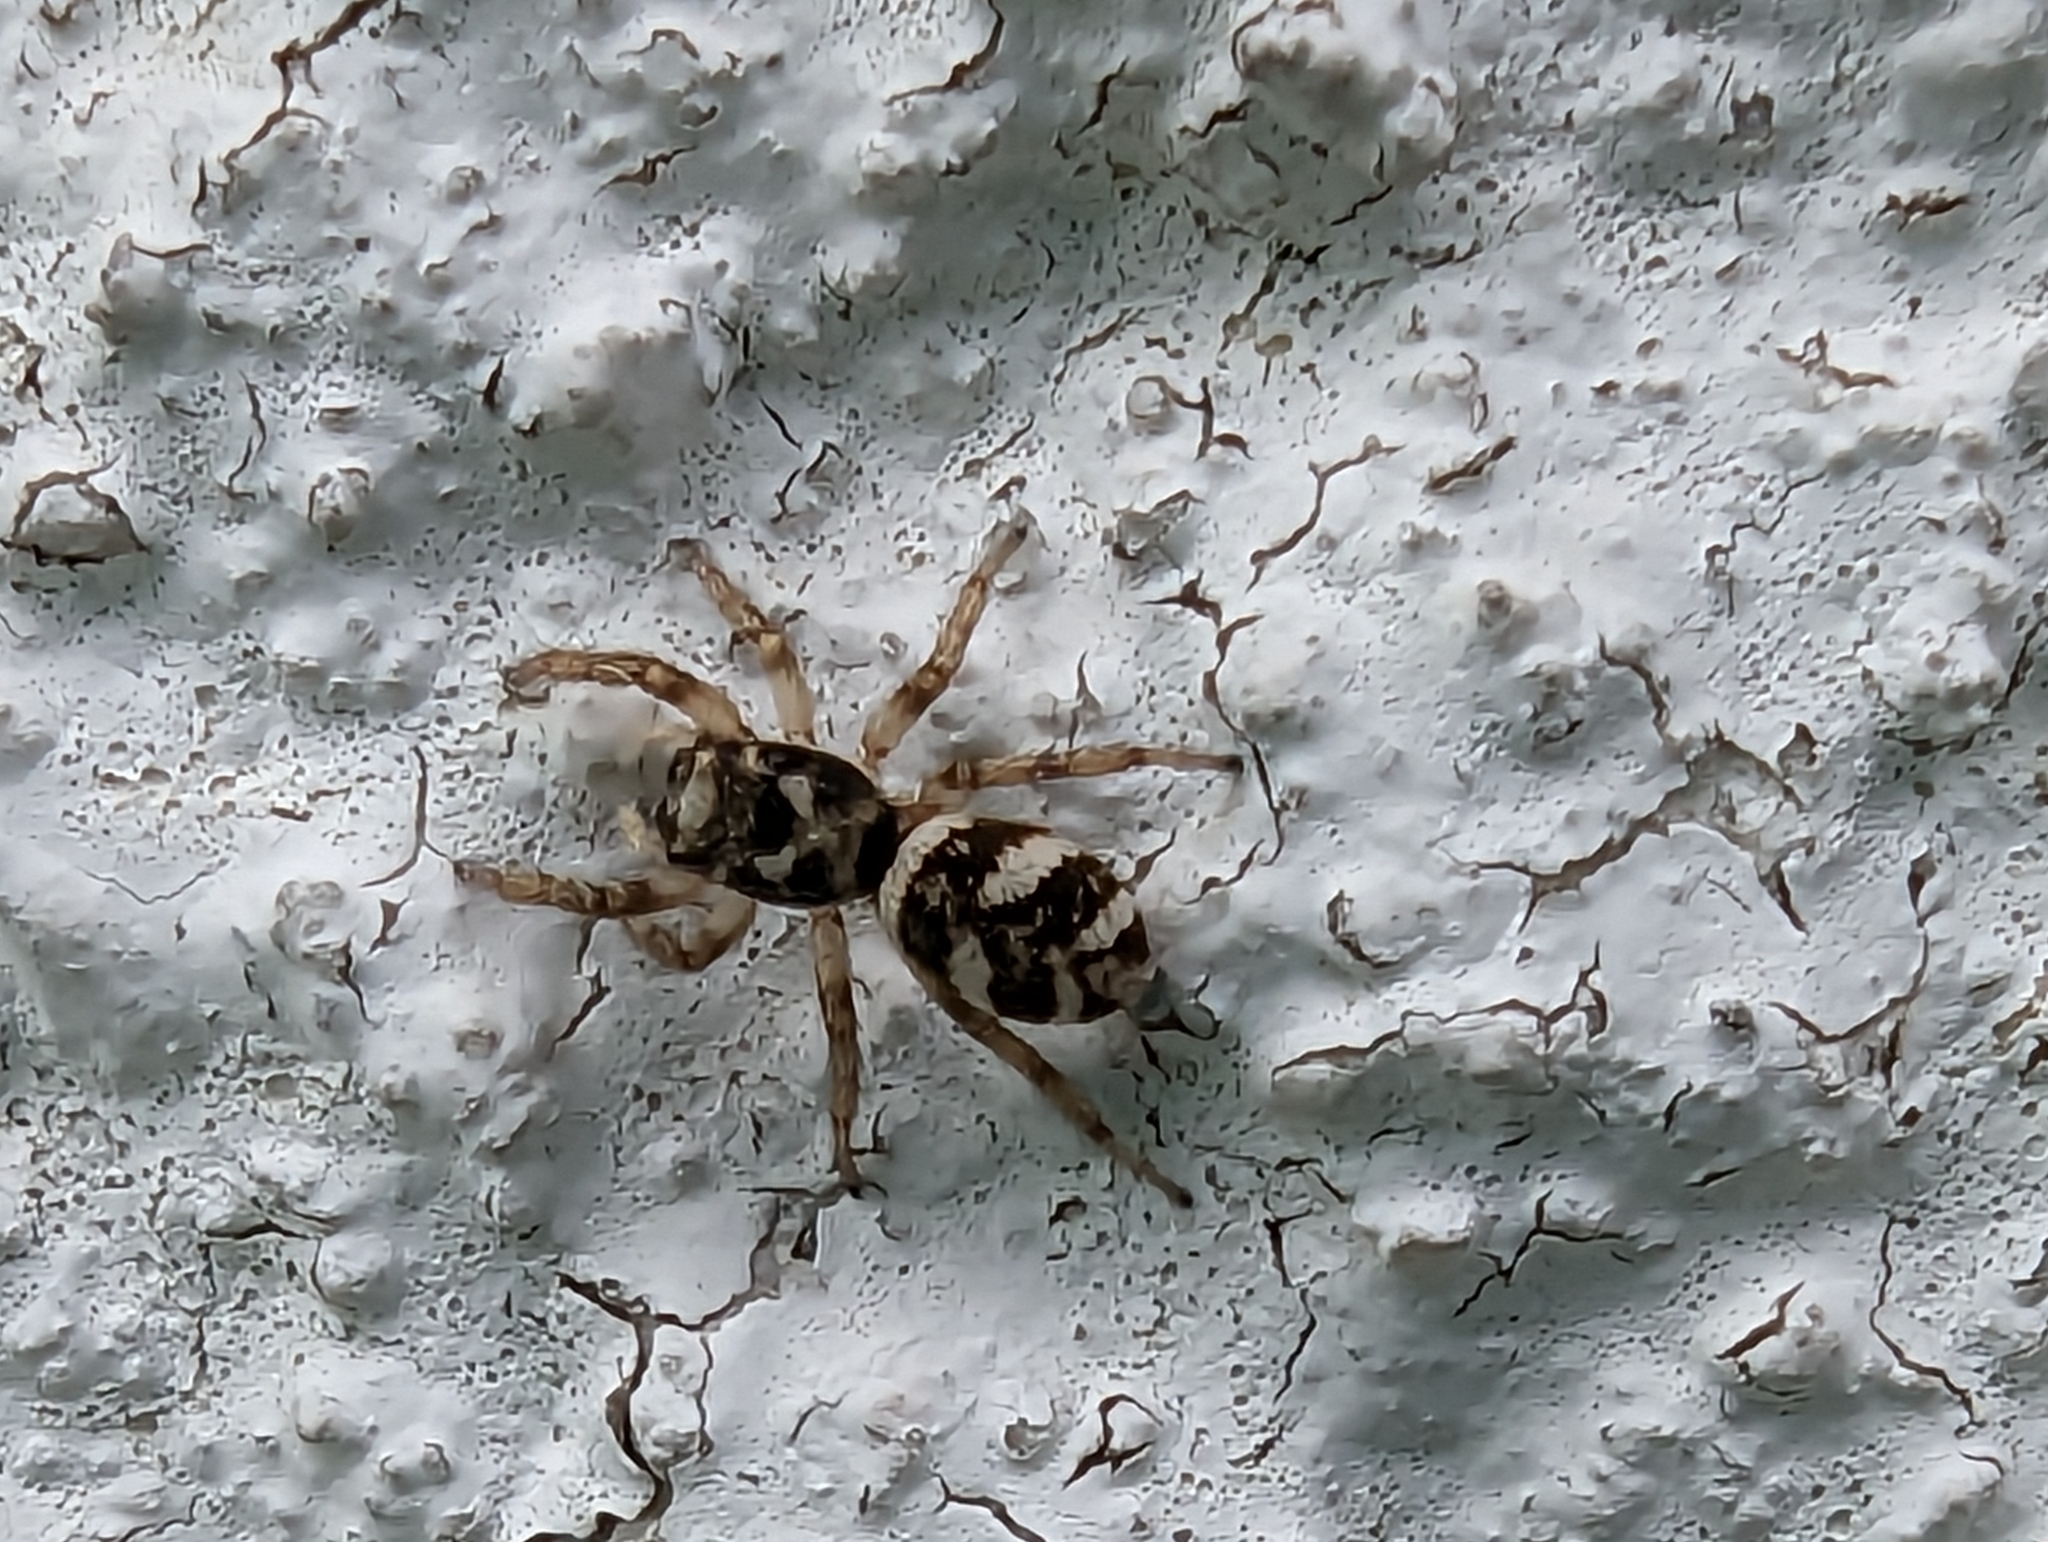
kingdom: Animalia
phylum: Arthropoda
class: Arachnida
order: Araneae
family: Salticidae
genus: Salticus
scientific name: Salticus scenicus
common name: Zebra jumper
